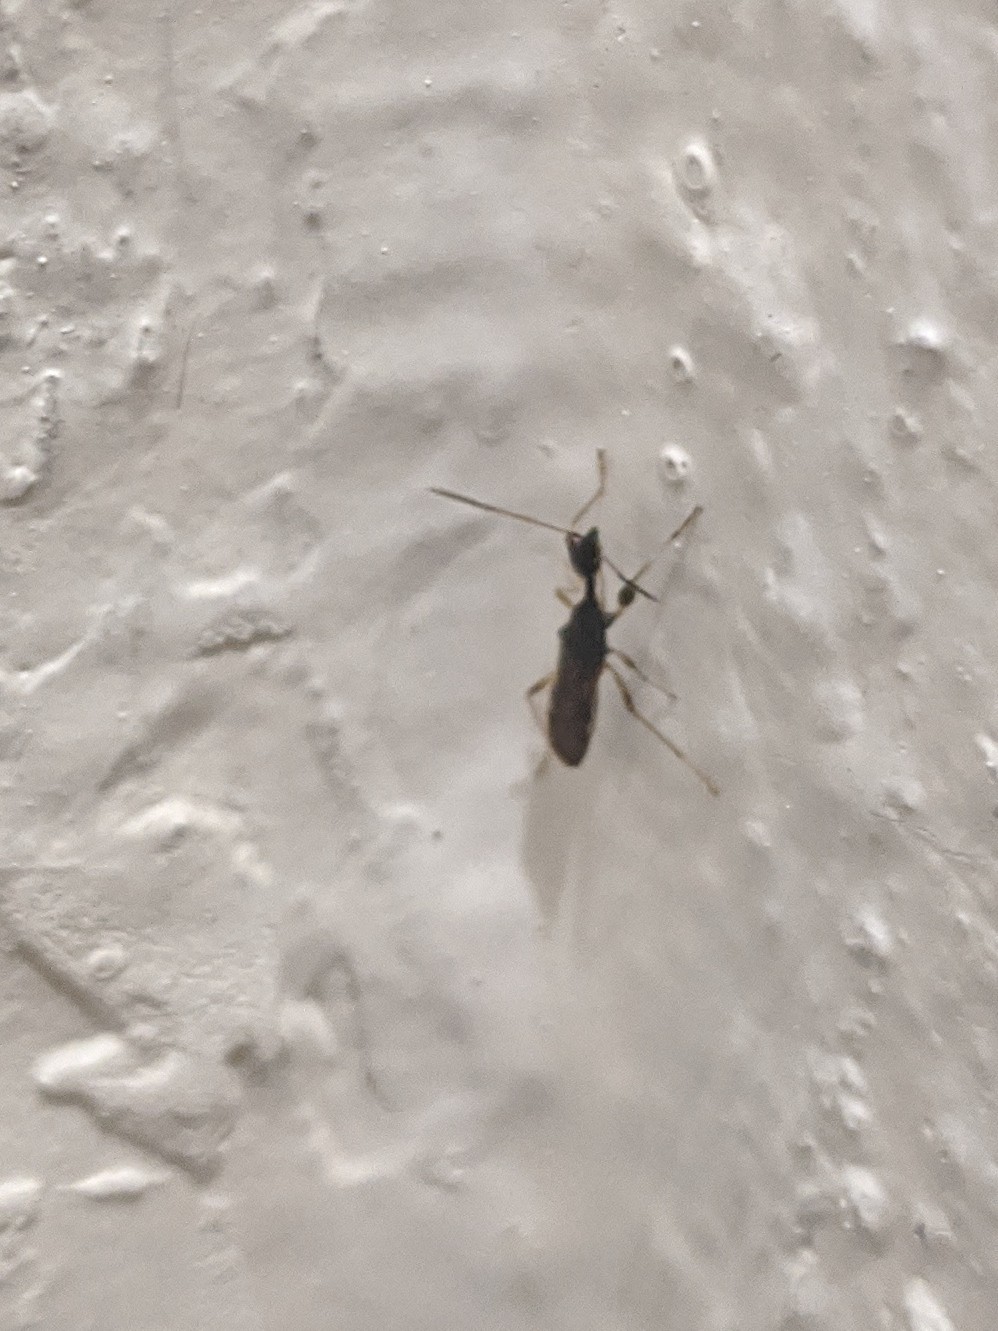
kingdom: Animalia
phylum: Arthropoda
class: Insecta
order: Hemiptera
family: Rhyparochromidae
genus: Myodocha
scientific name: Myodocha serripes
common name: Long-necked seed bug
